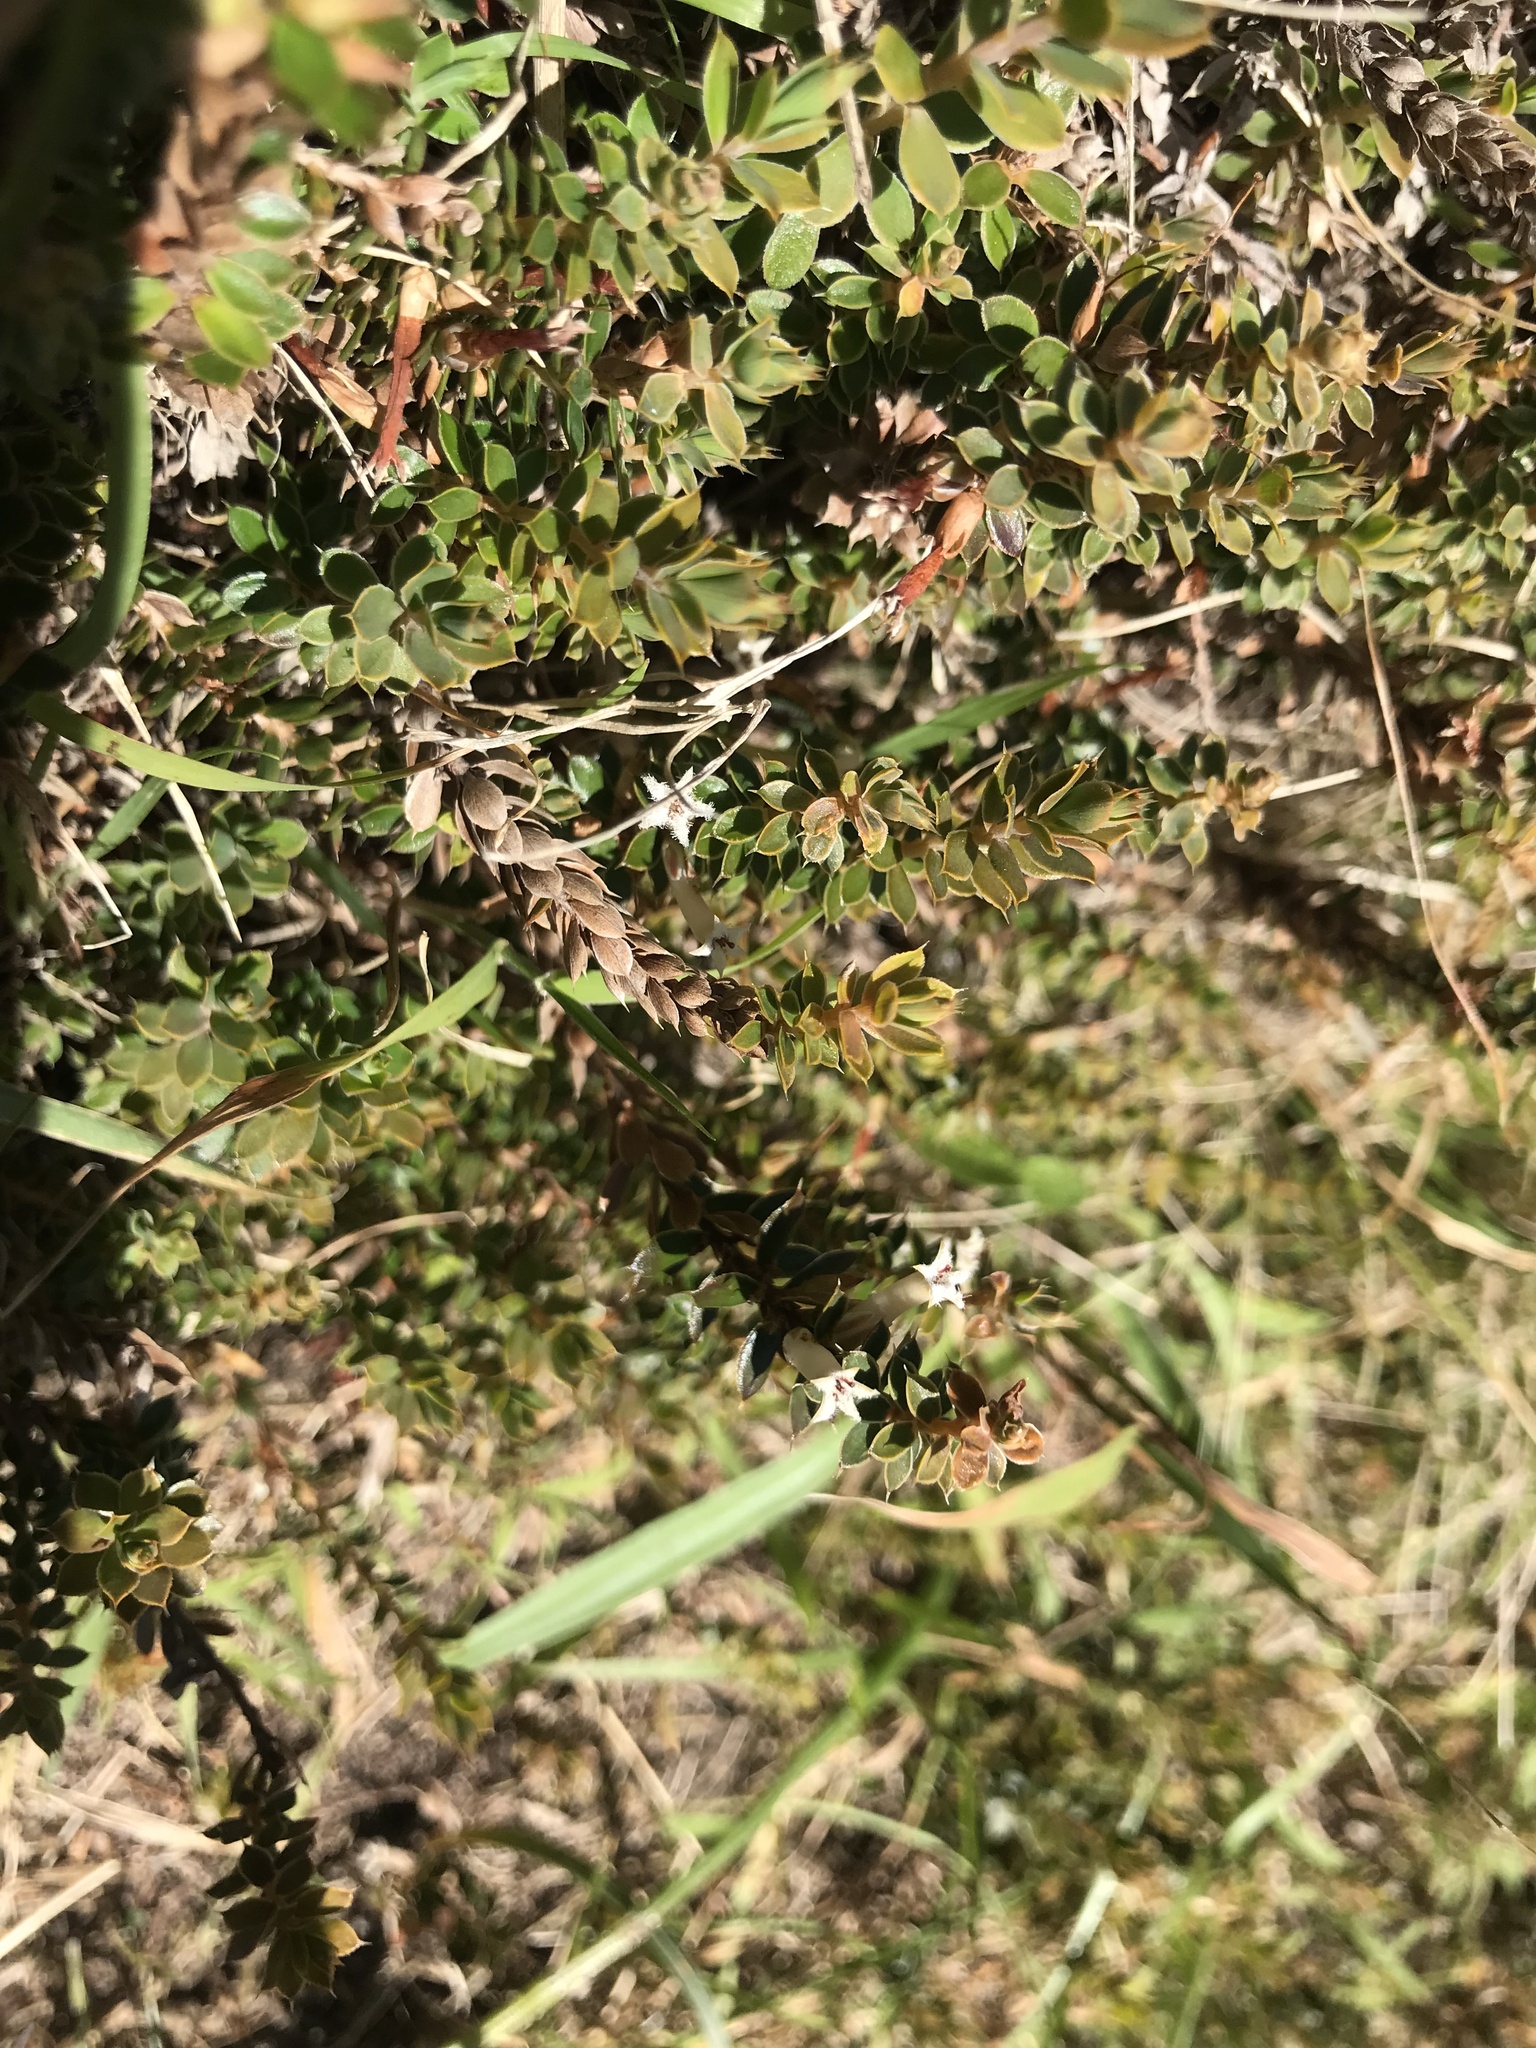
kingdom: Plantae
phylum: Tracheophyta
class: Magnoliopsida
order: Ericales
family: Ericaceae
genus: Styphelia
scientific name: Styphelia nesophila
